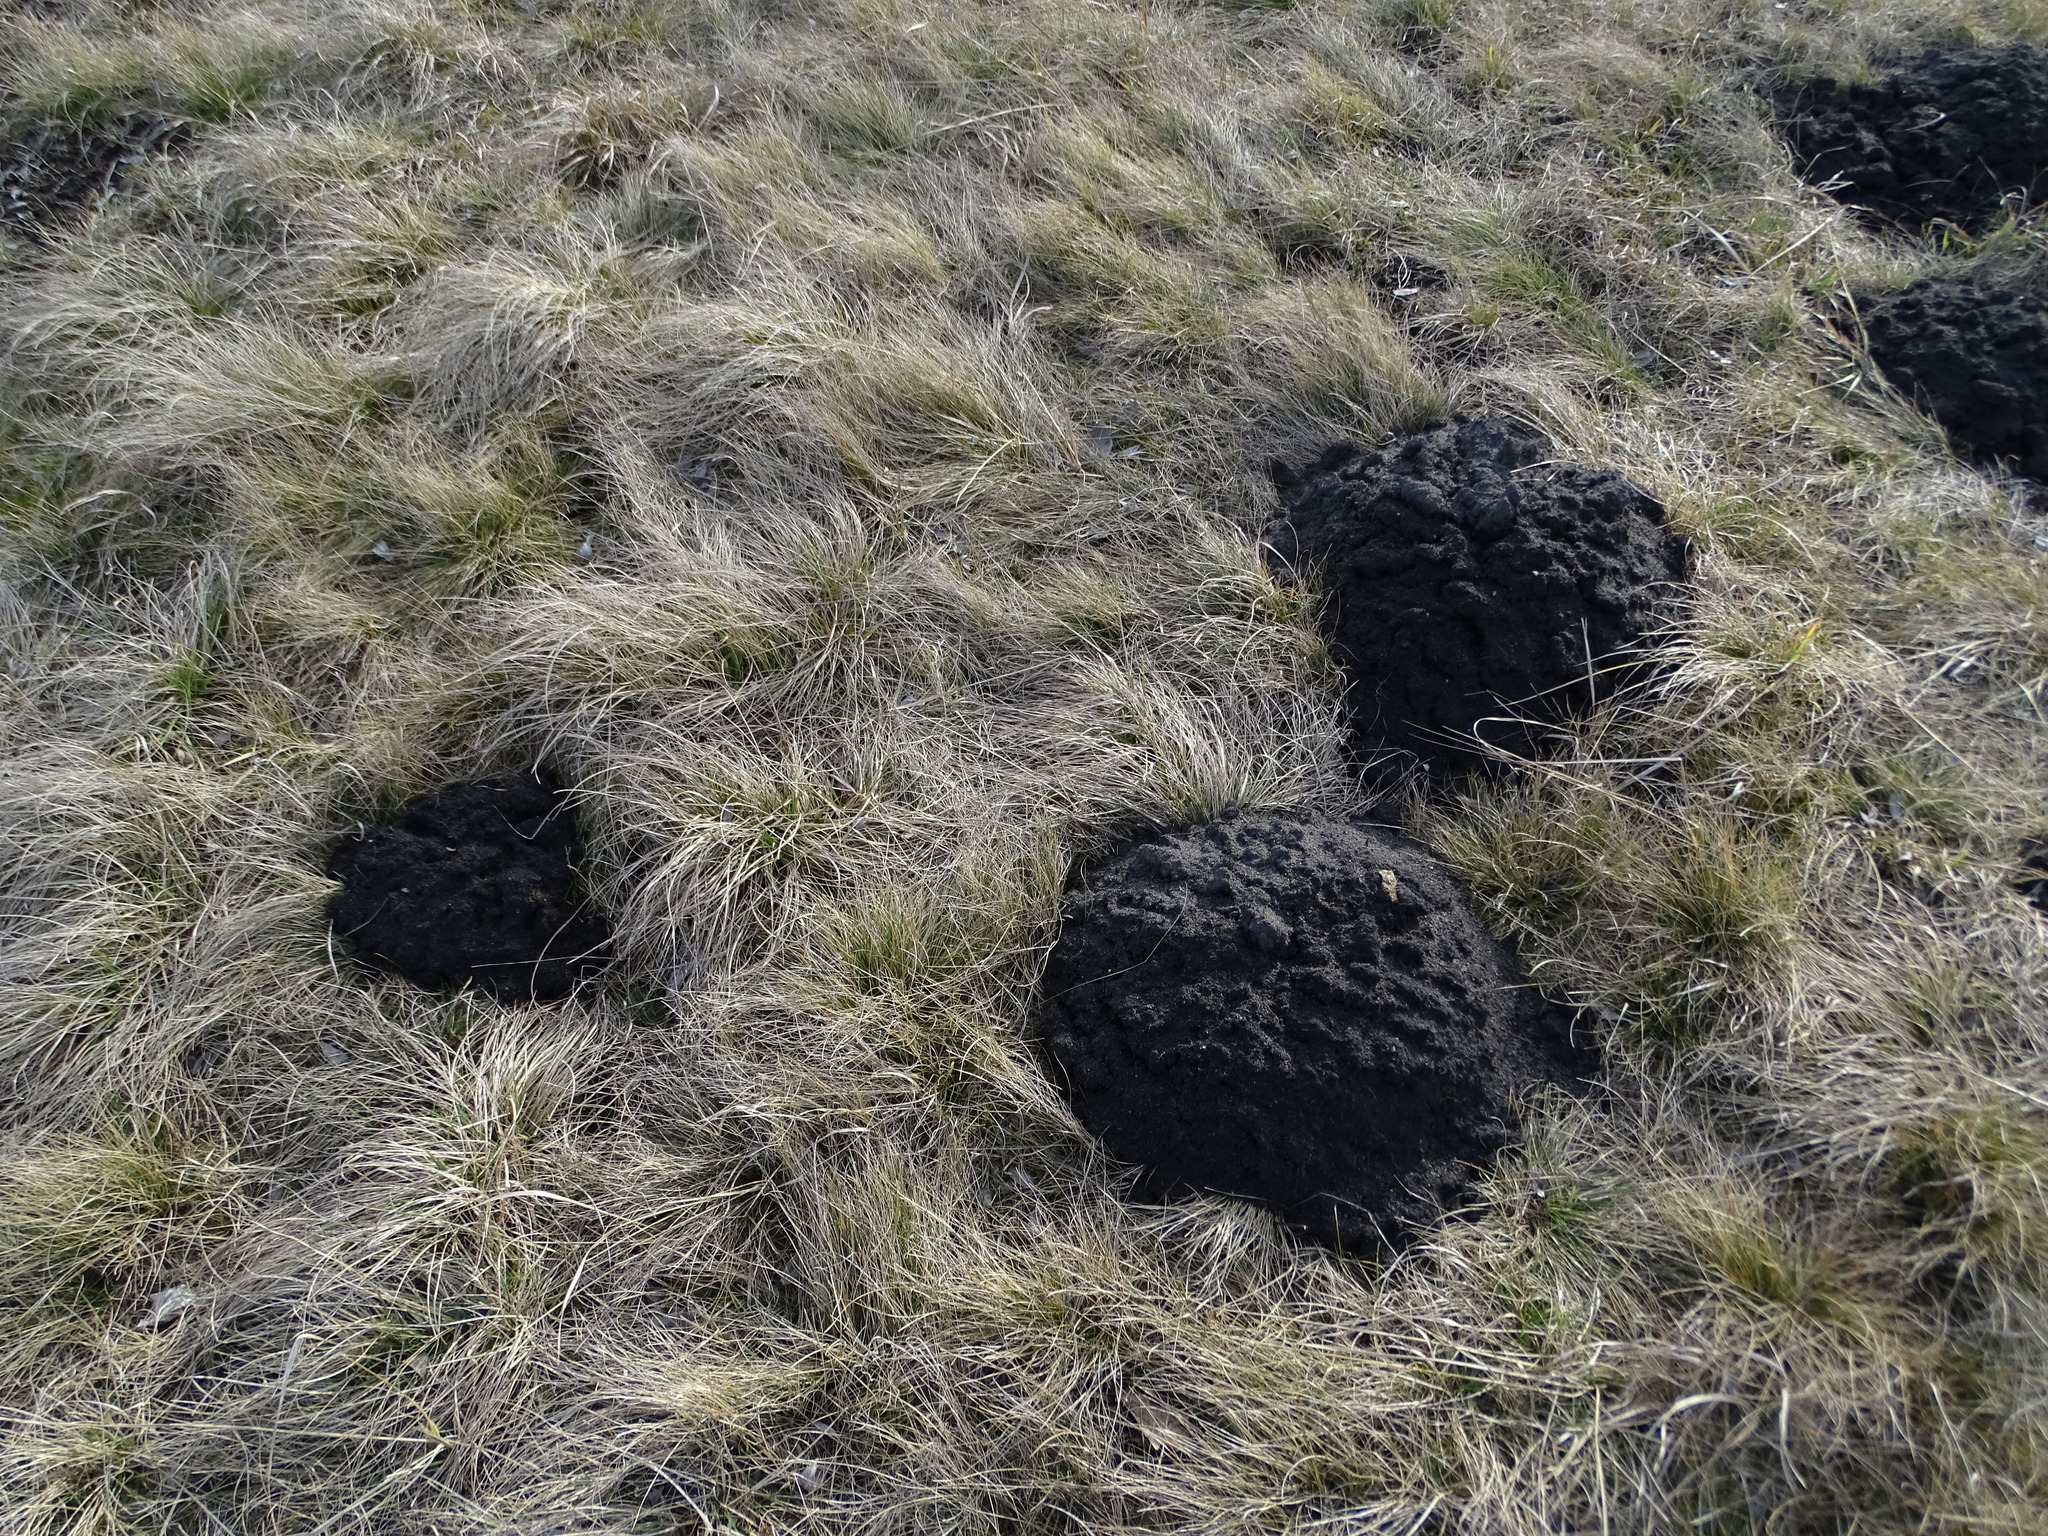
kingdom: Animalia
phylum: Chordata
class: Mammalia
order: Soricomorpha
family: Talpidae
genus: Talpa
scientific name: Talpa europaea
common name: European mole
